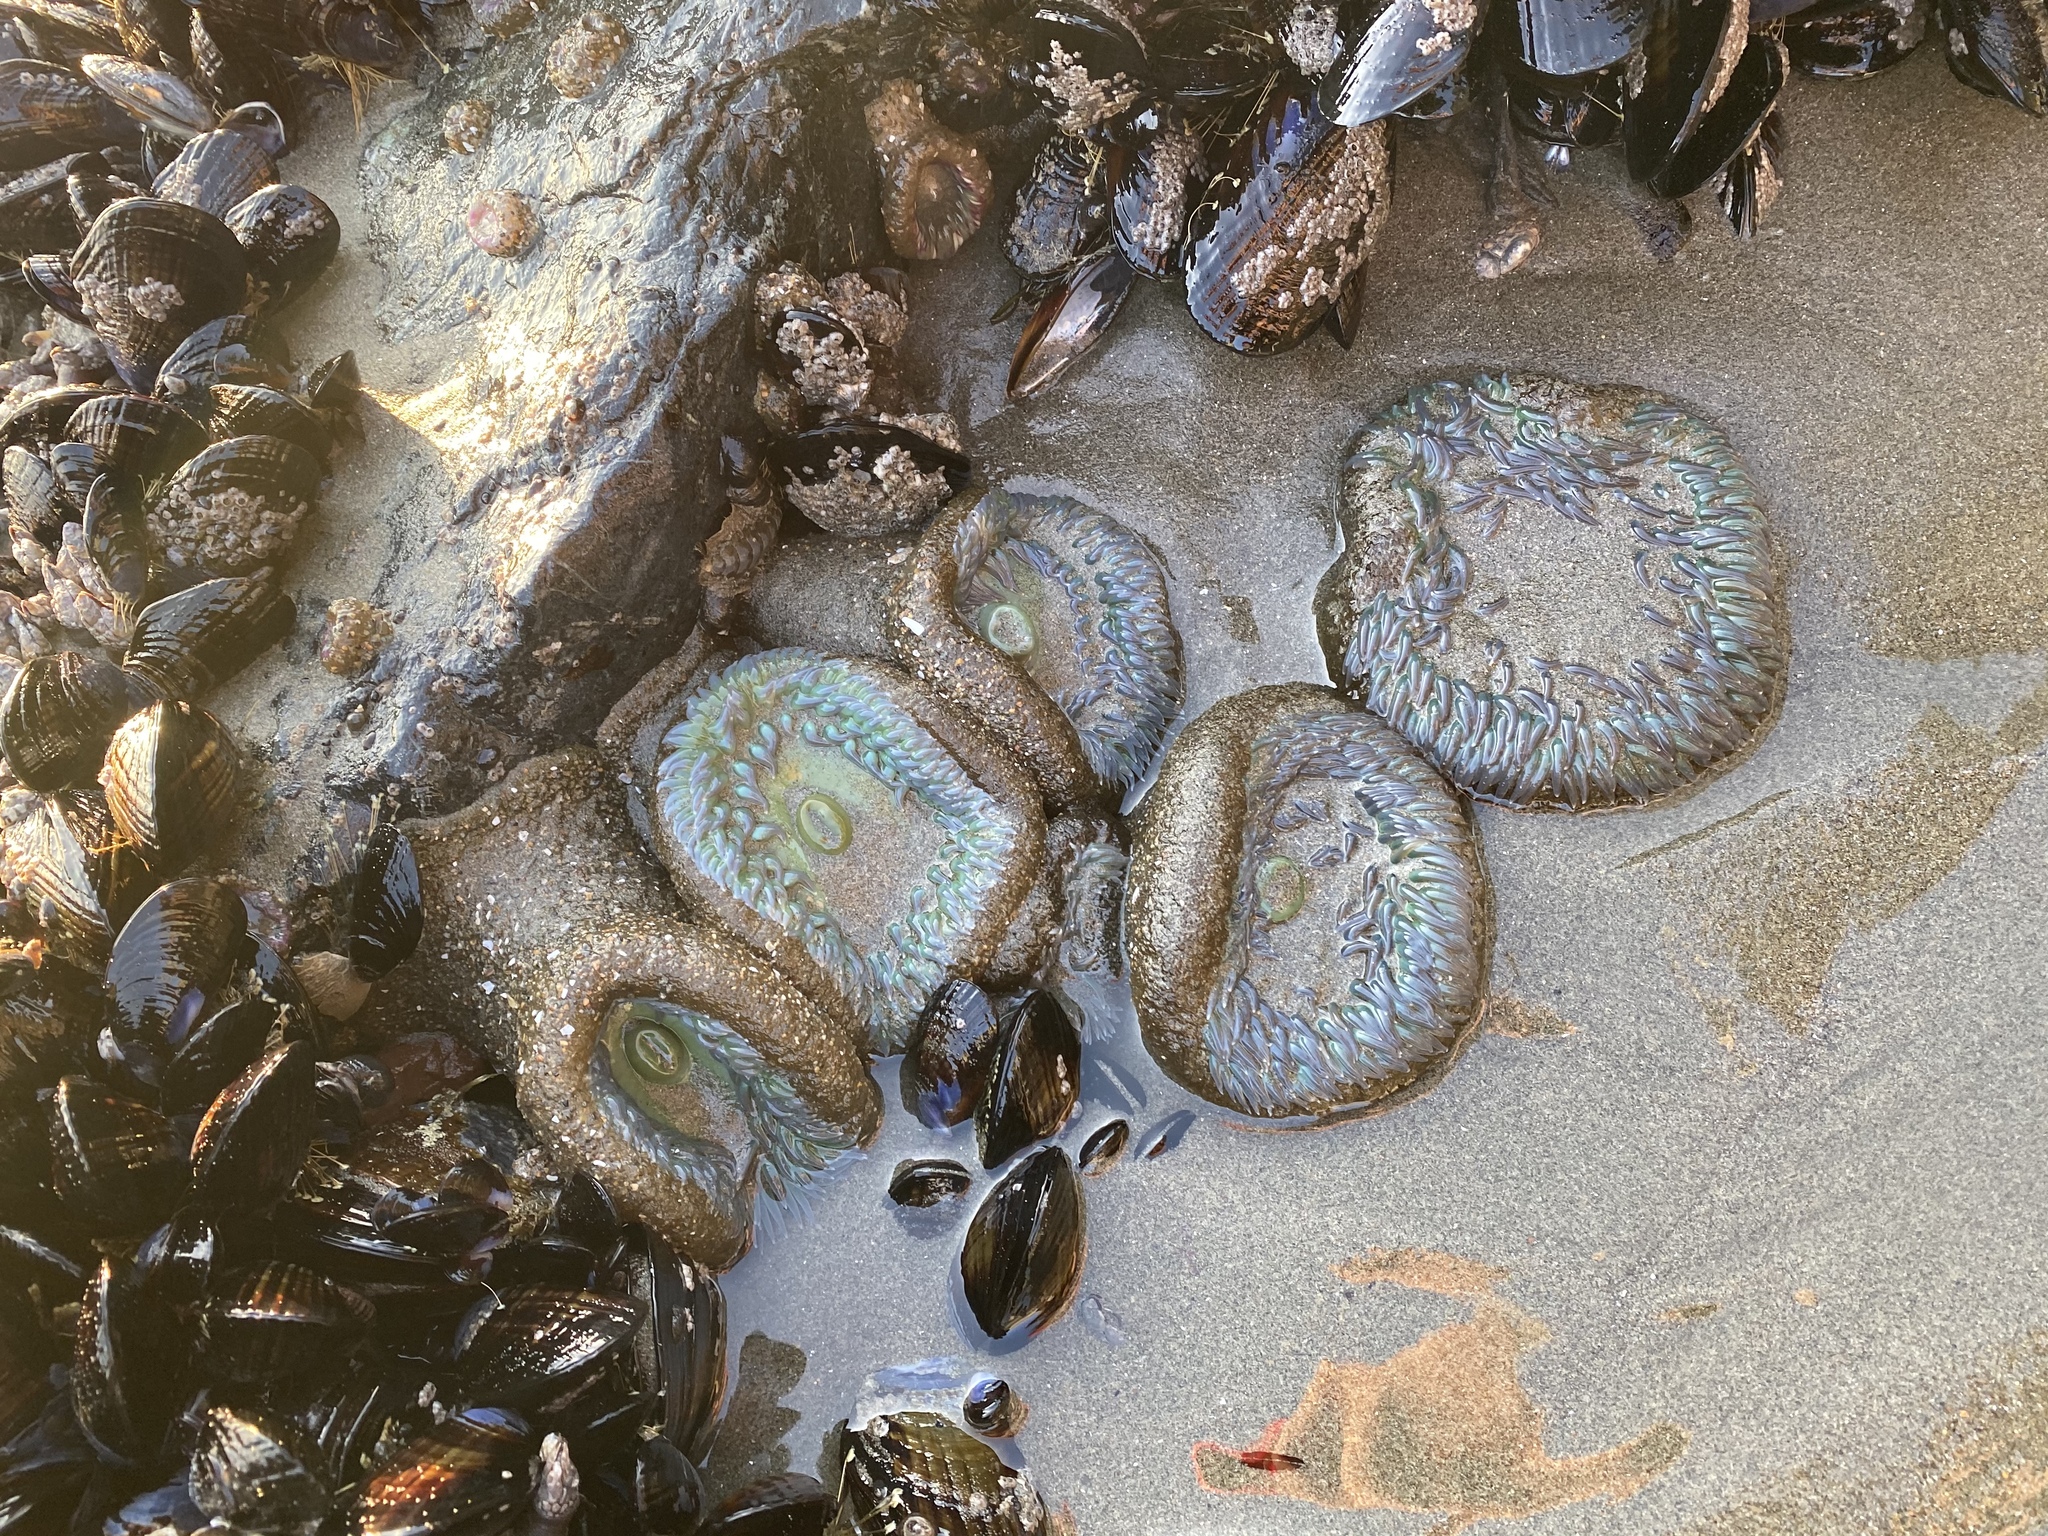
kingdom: Animalia
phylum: Cnidaria
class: Anthozoa
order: Actiniaria
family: Actiniidae
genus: Anthopleura
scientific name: Anthopleura xanthogrammica
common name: Giant green anemone
